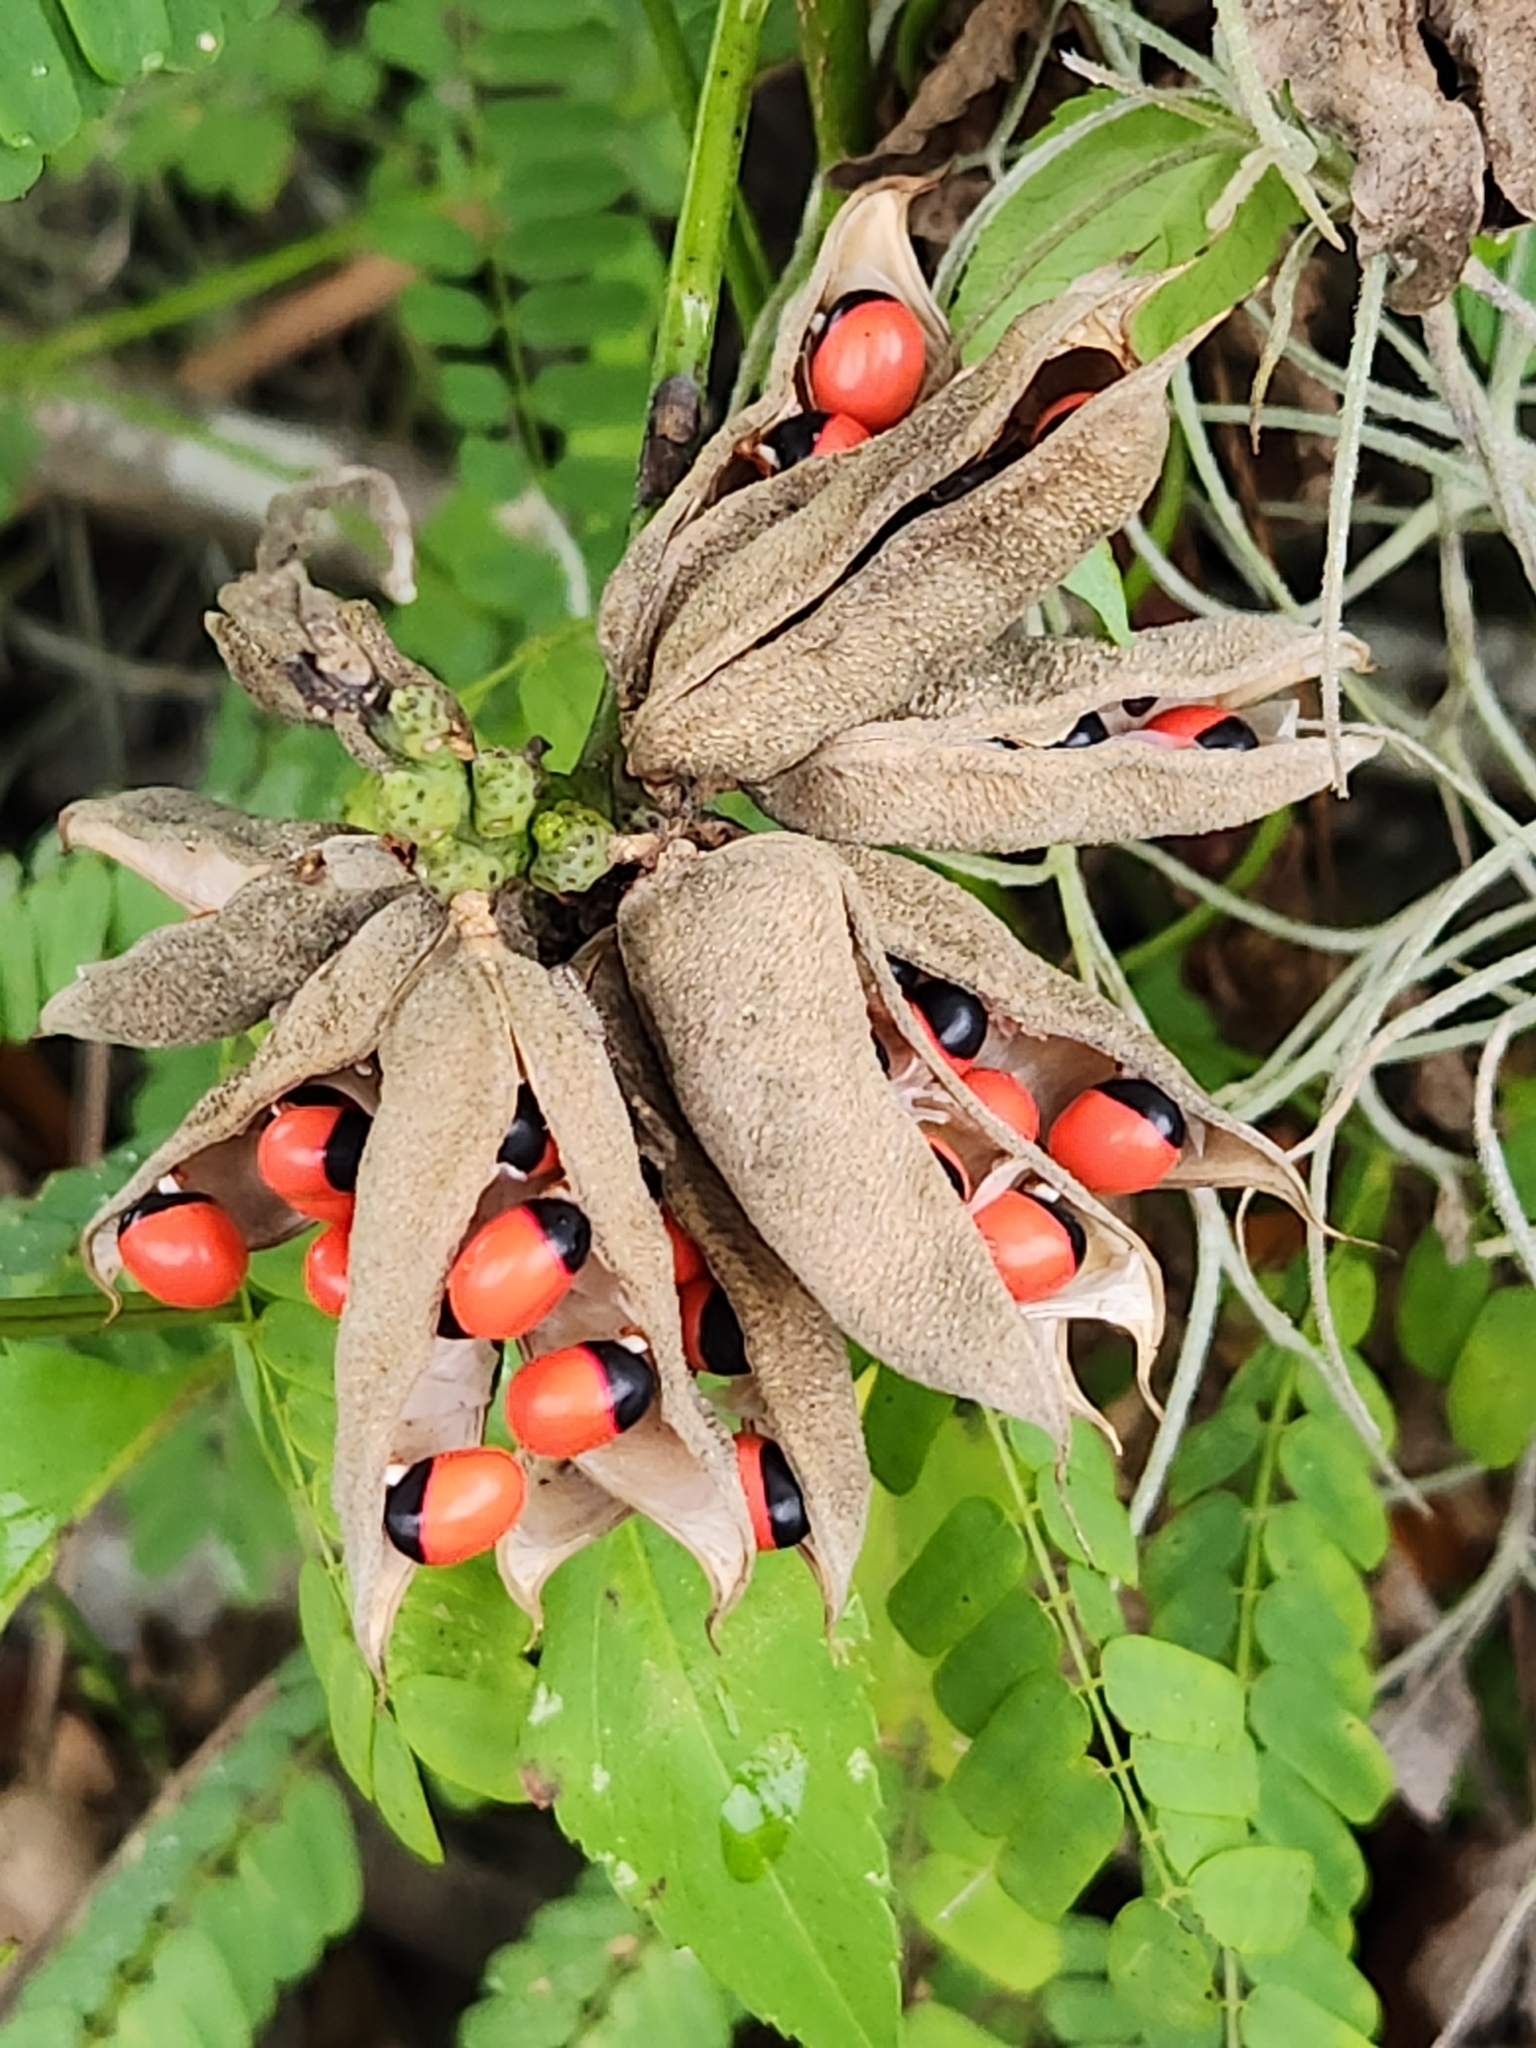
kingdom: Plantae
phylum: Tracheophyta
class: Magnoliopsida
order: Fabales
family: Fabaceae
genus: Abrus
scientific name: Abrus precatorius
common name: Rosarypea
